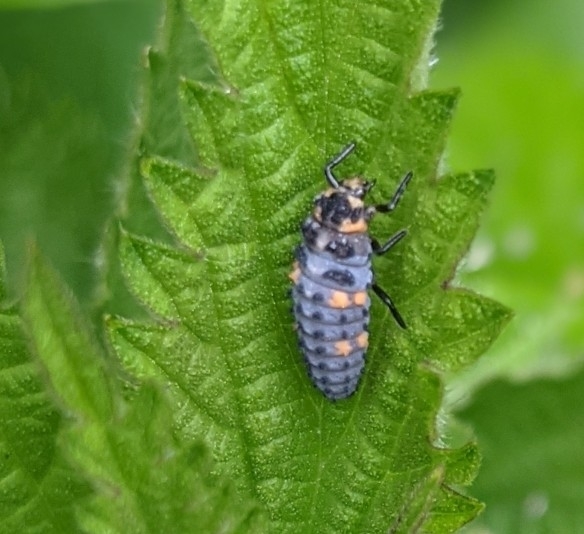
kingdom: Animalia
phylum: Arthropoda
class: Insecta
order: Coleoptera
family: Coccinellidae
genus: Coccinella
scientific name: Coccinella septempunctata
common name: Sevenspotted lady beetle
